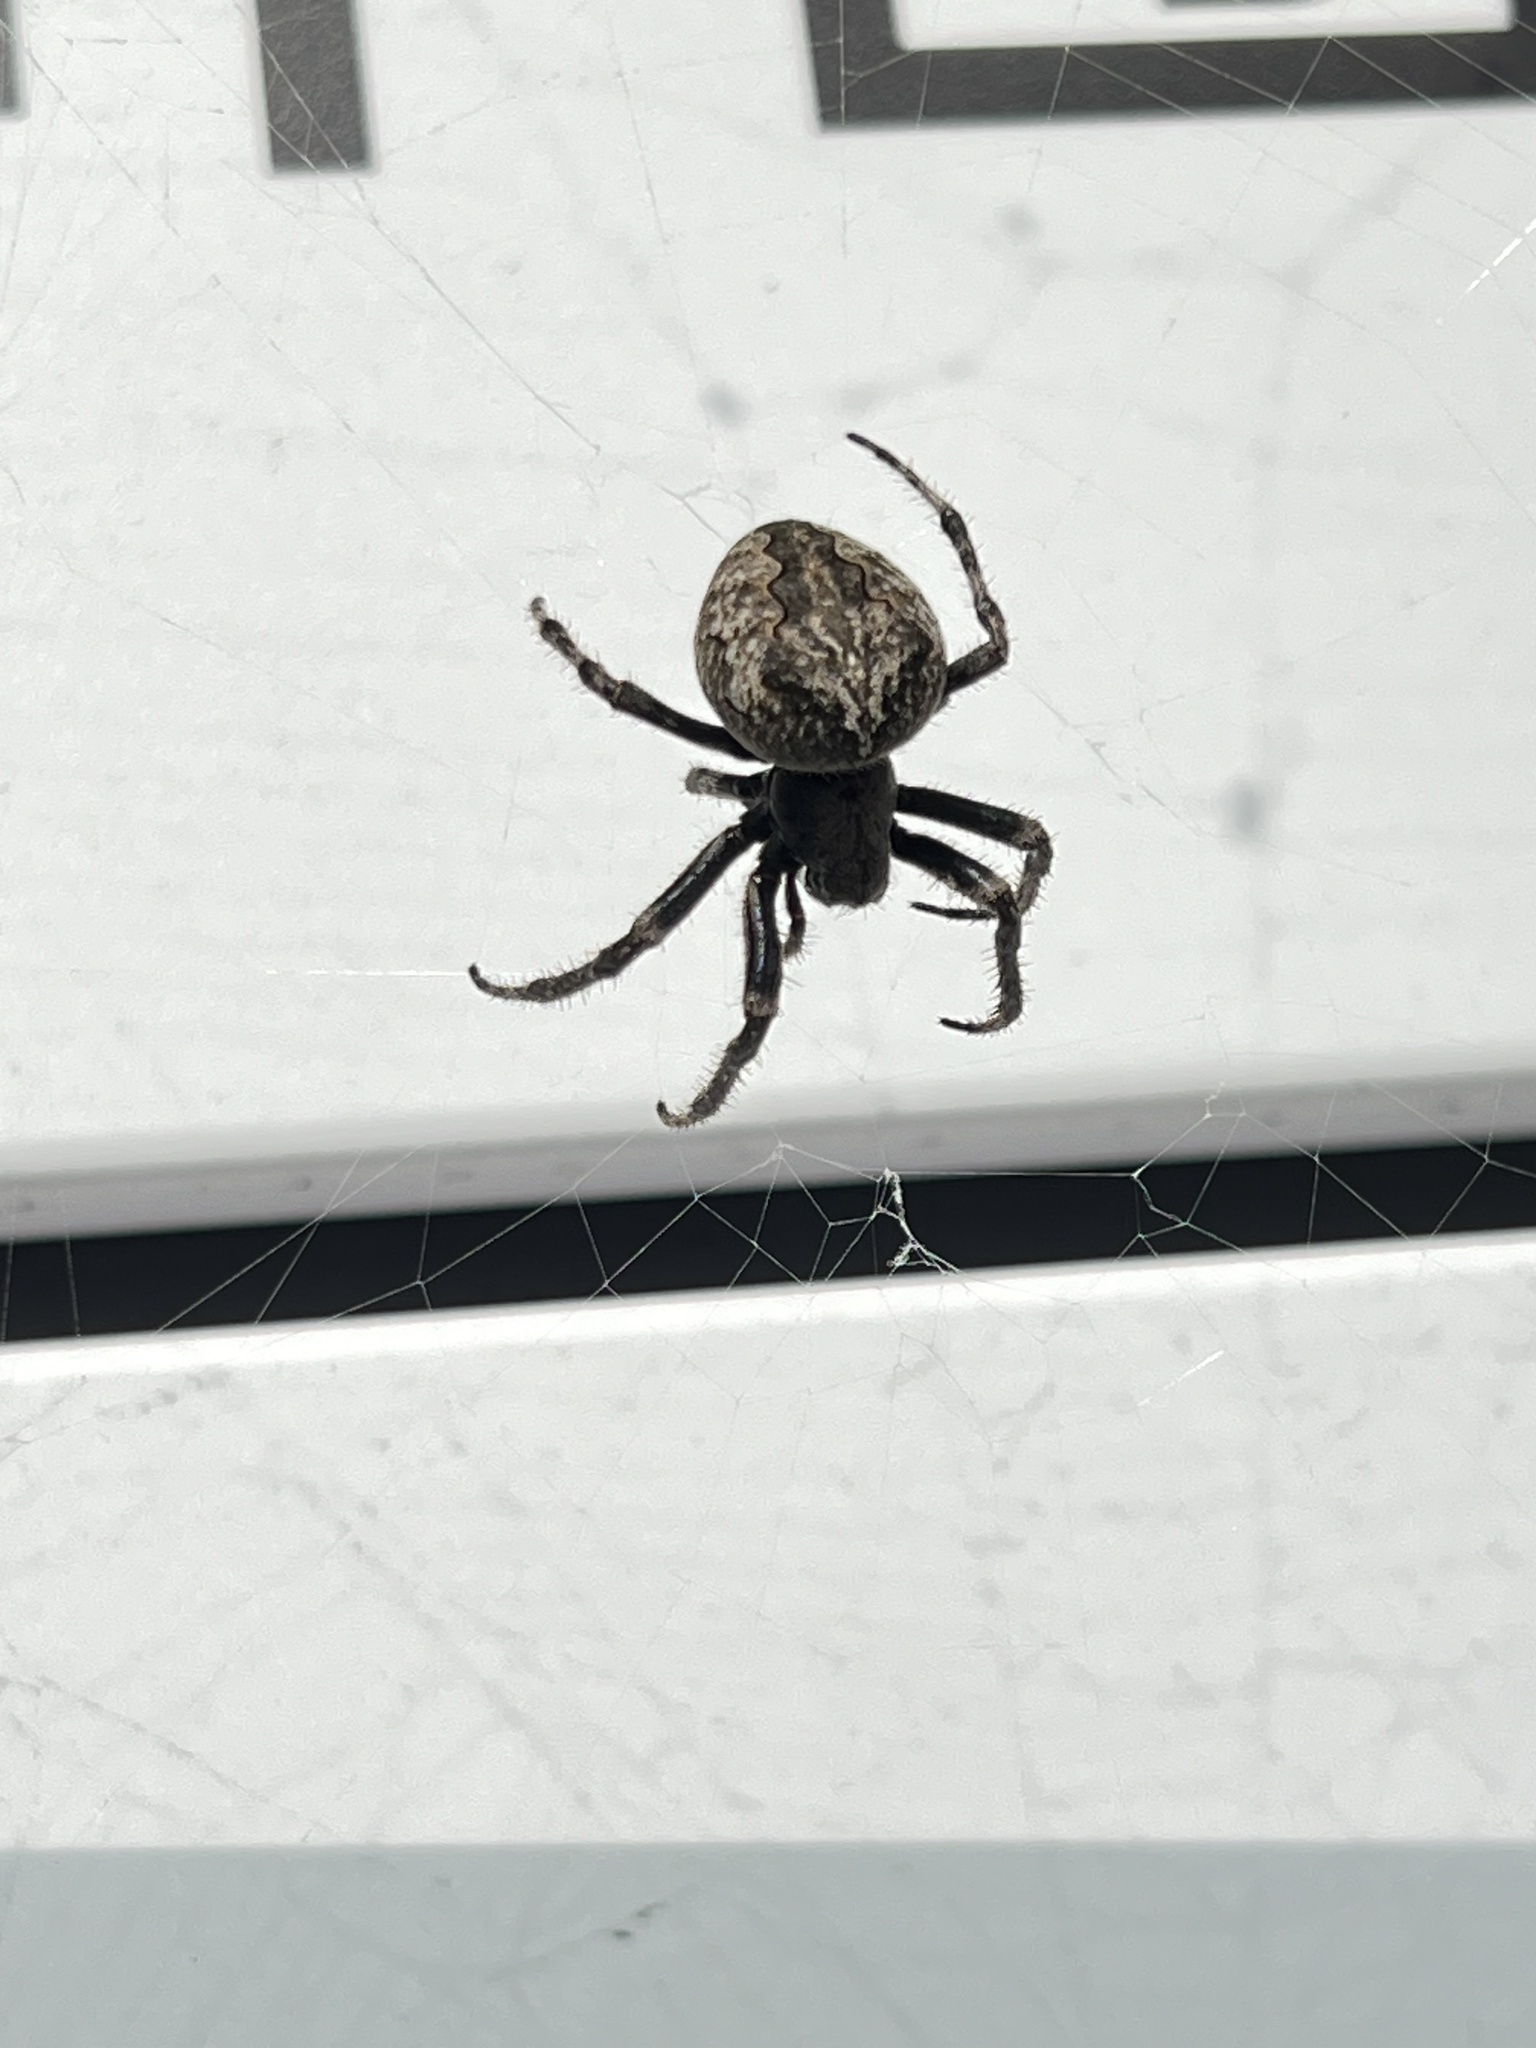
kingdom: Animalia
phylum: Arthropoda
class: Arachnida
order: Araneae
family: Araneidae
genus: Araneus
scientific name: Araneus ventricosus
